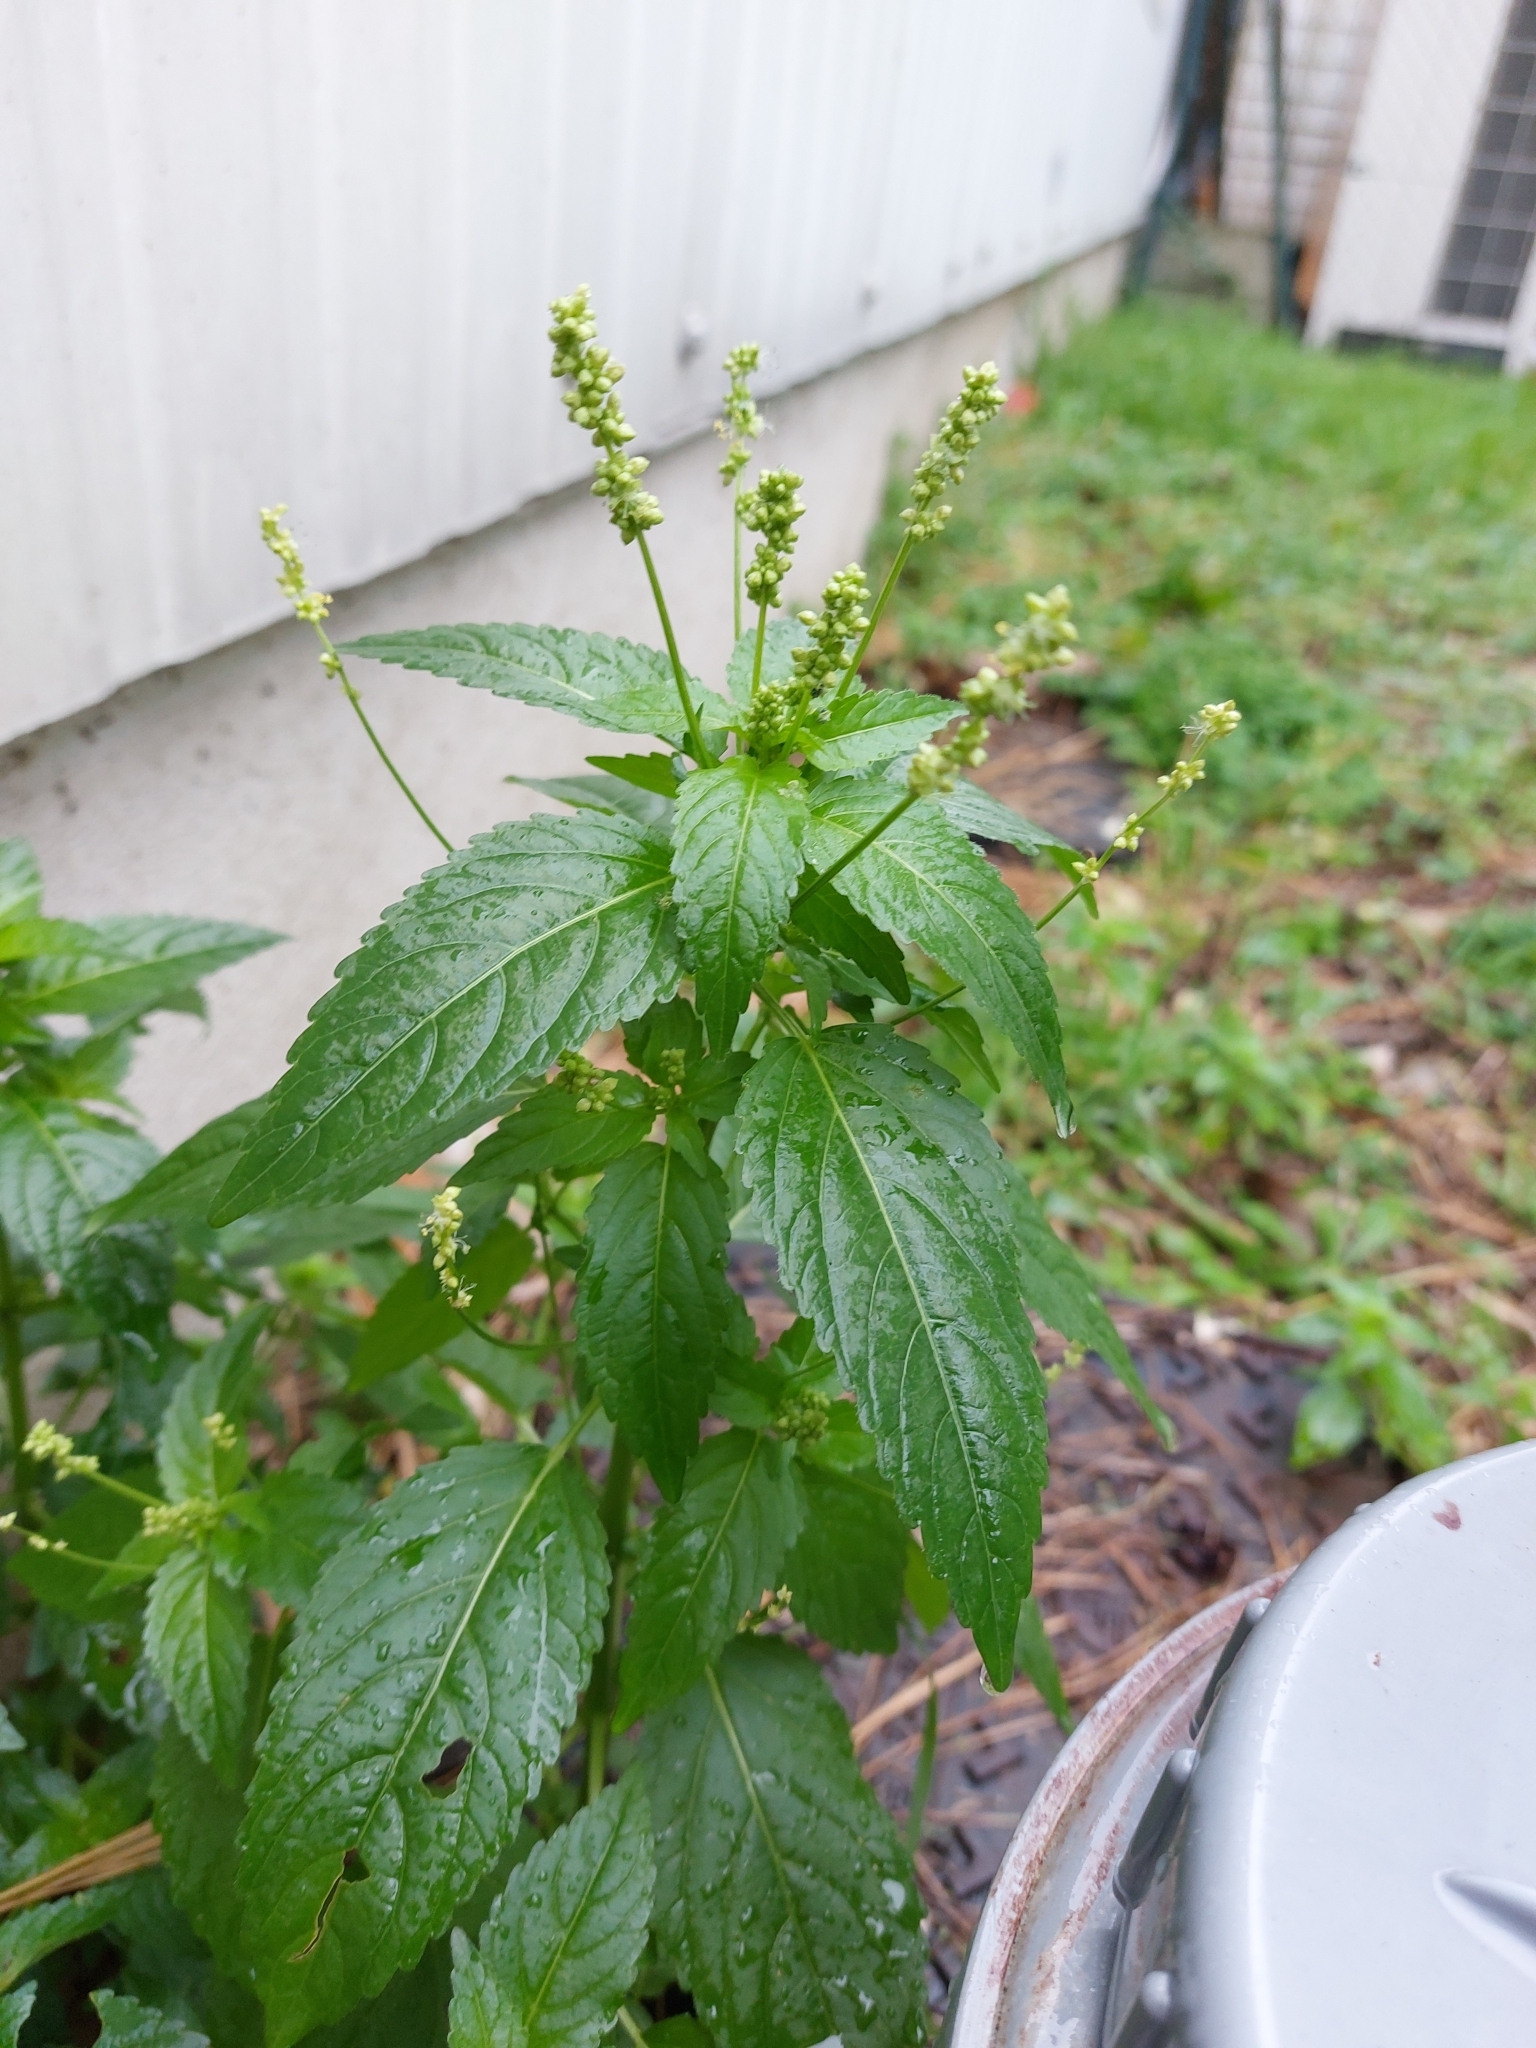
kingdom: Plantae
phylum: Tracheophyta
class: Magnoliopsida
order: Malpighiales
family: Euphorbiaceae
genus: Mercurialis
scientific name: Mercurialis annua
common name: Annual mercury
